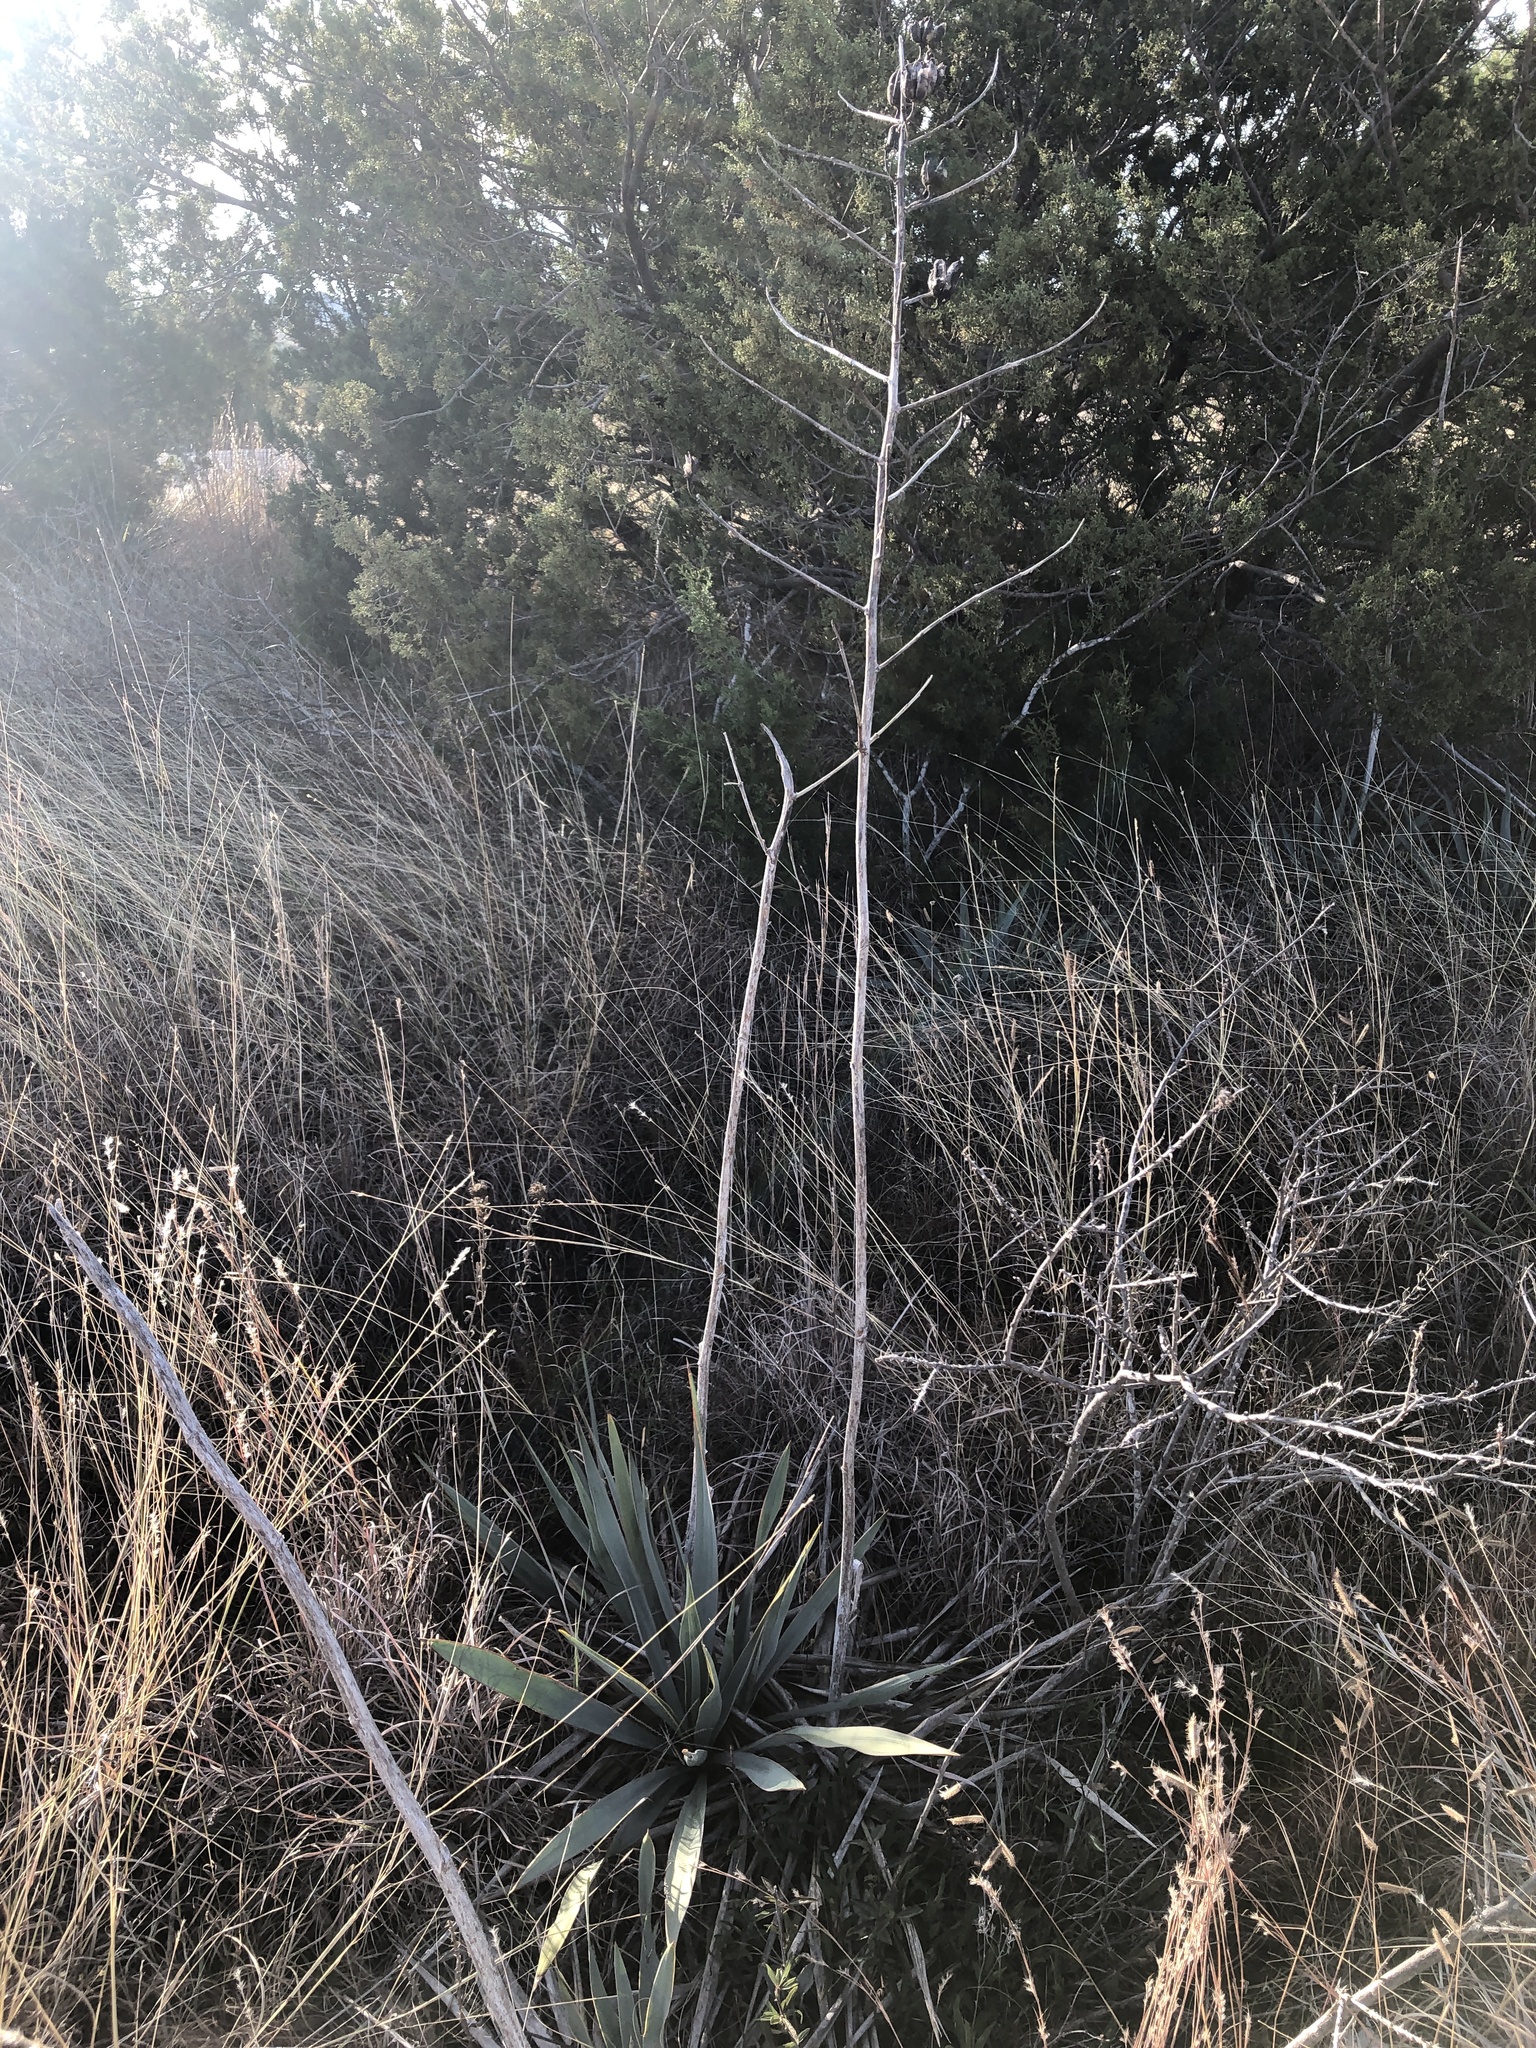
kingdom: Plantae
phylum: Tracheophyta
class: Liliopsida
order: Asparagales
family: Asparagaceae
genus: Yucca
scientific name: Yucca pallida
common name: Pale leaf yucca
